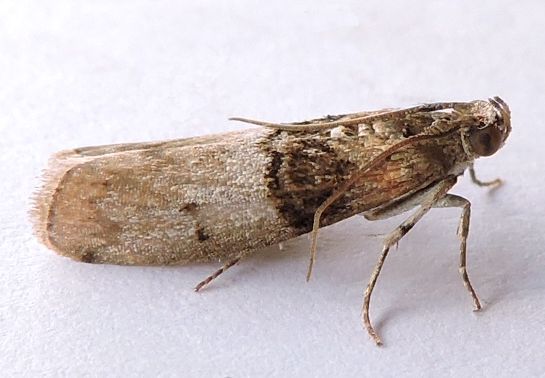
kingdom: Animalia
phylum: Arthropoda
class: Insecta
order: Lepidoptera
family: Pyralidae
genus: Tlascala
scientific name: Tlascala reductella
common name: Tlascala moth
